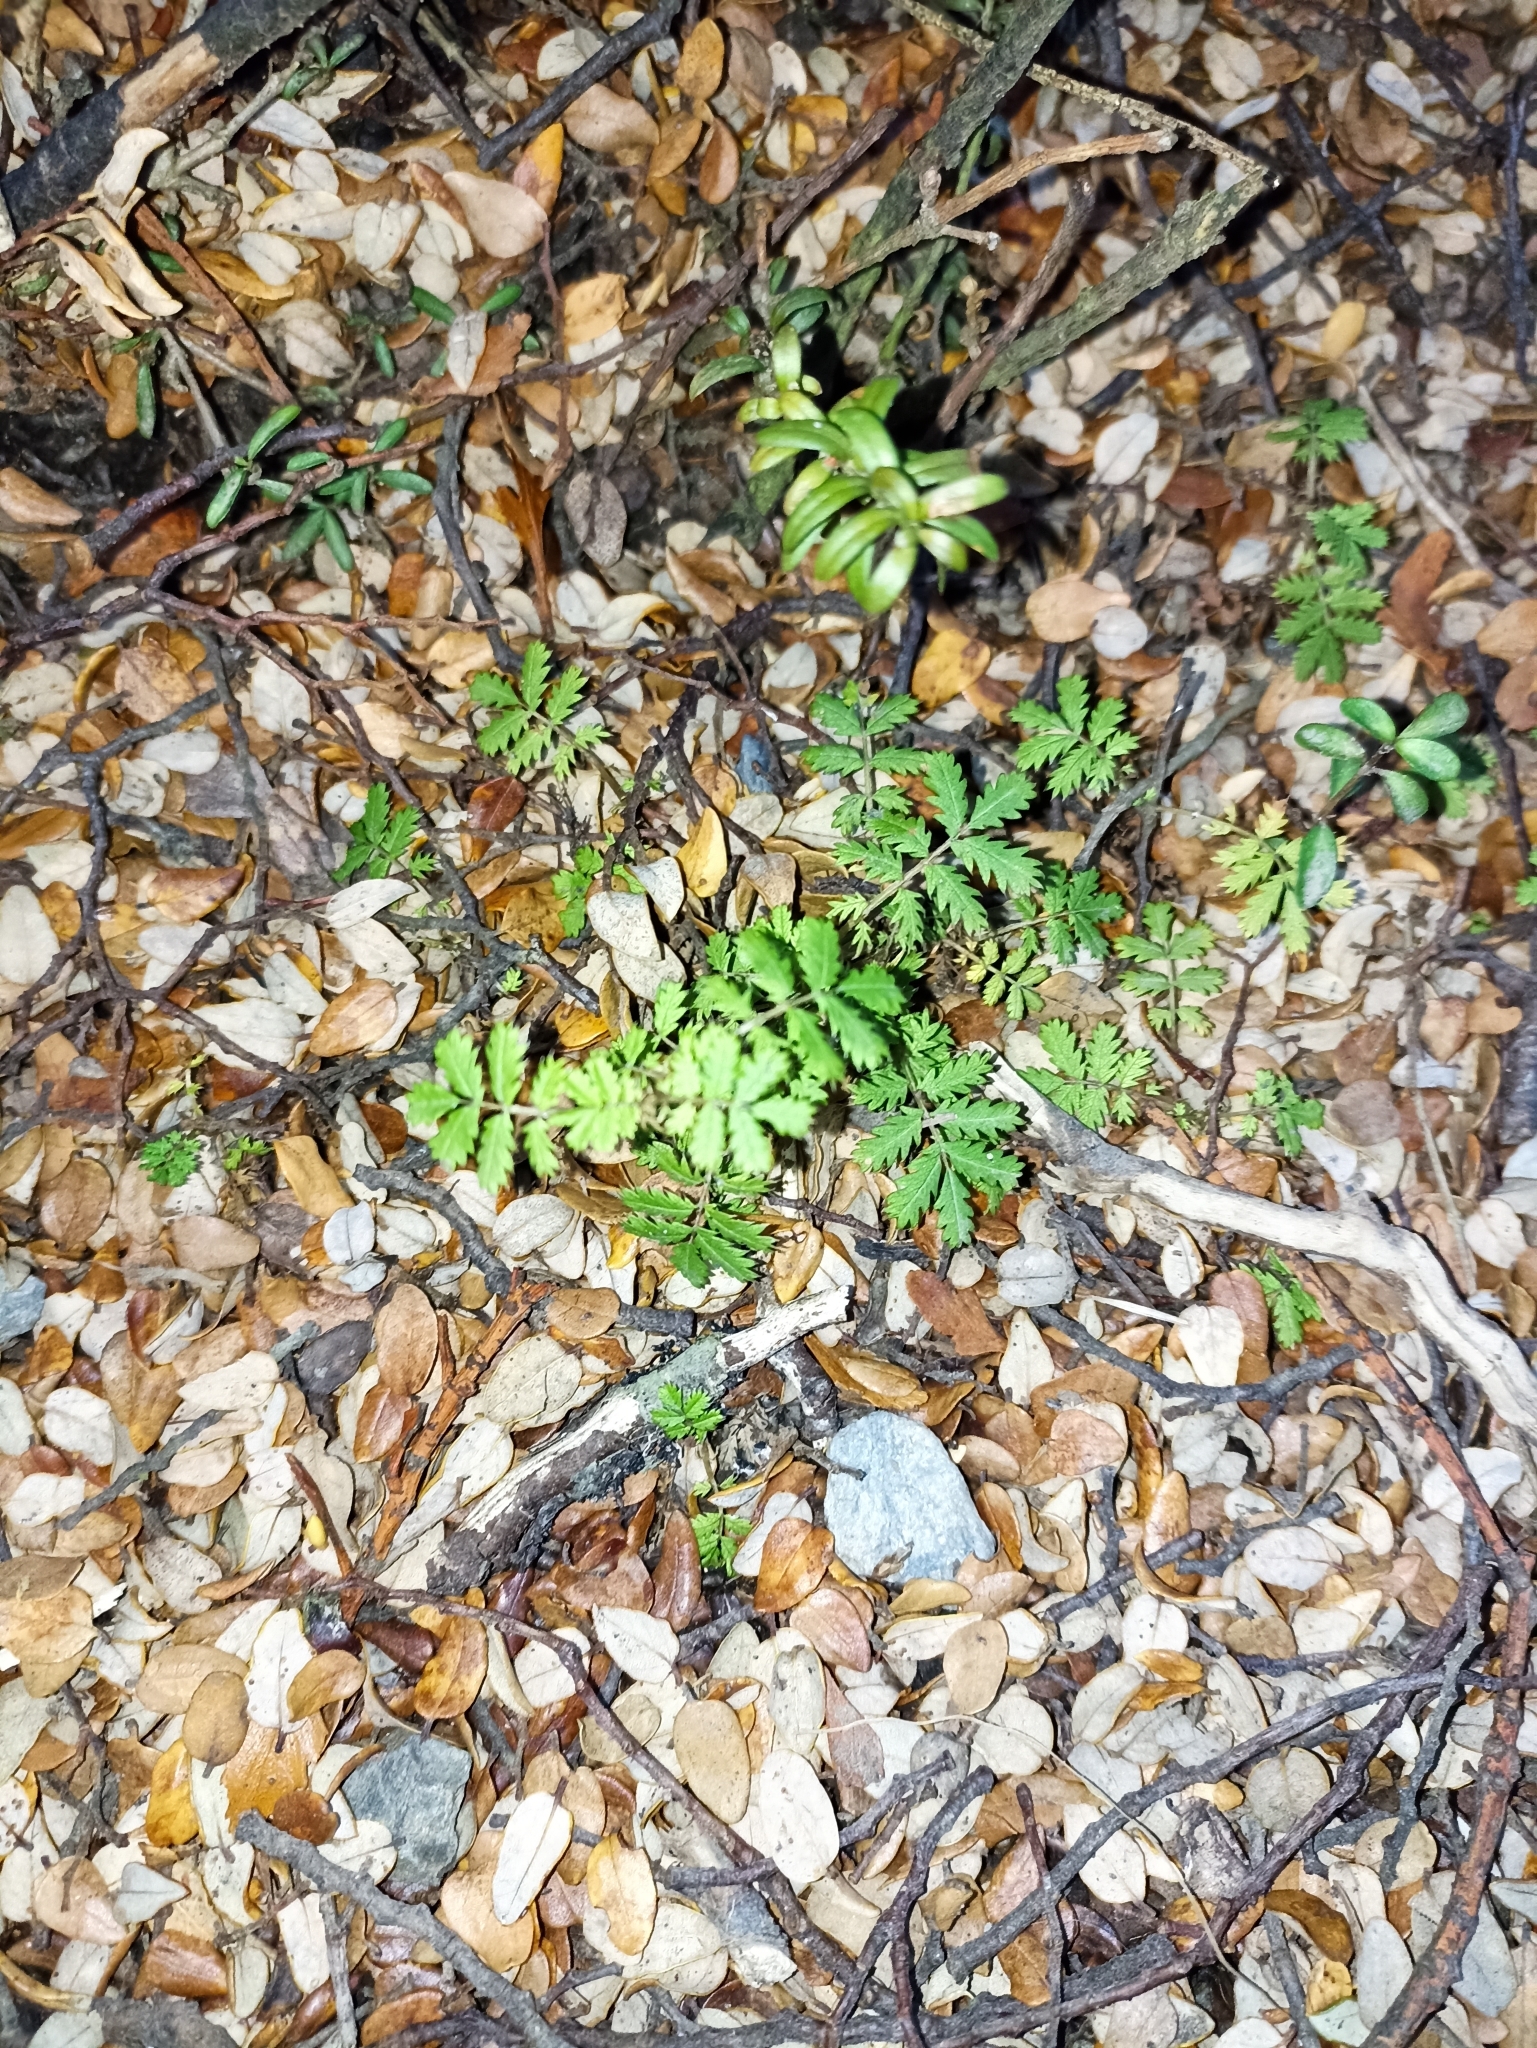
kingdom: Plantae
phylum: Tracheophyta
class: Magnoliopsida
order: Rosales
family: Rosaceae
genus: Acaena
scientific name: Acaena anserinifolia
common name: Bronze pirri-pirri-bur
